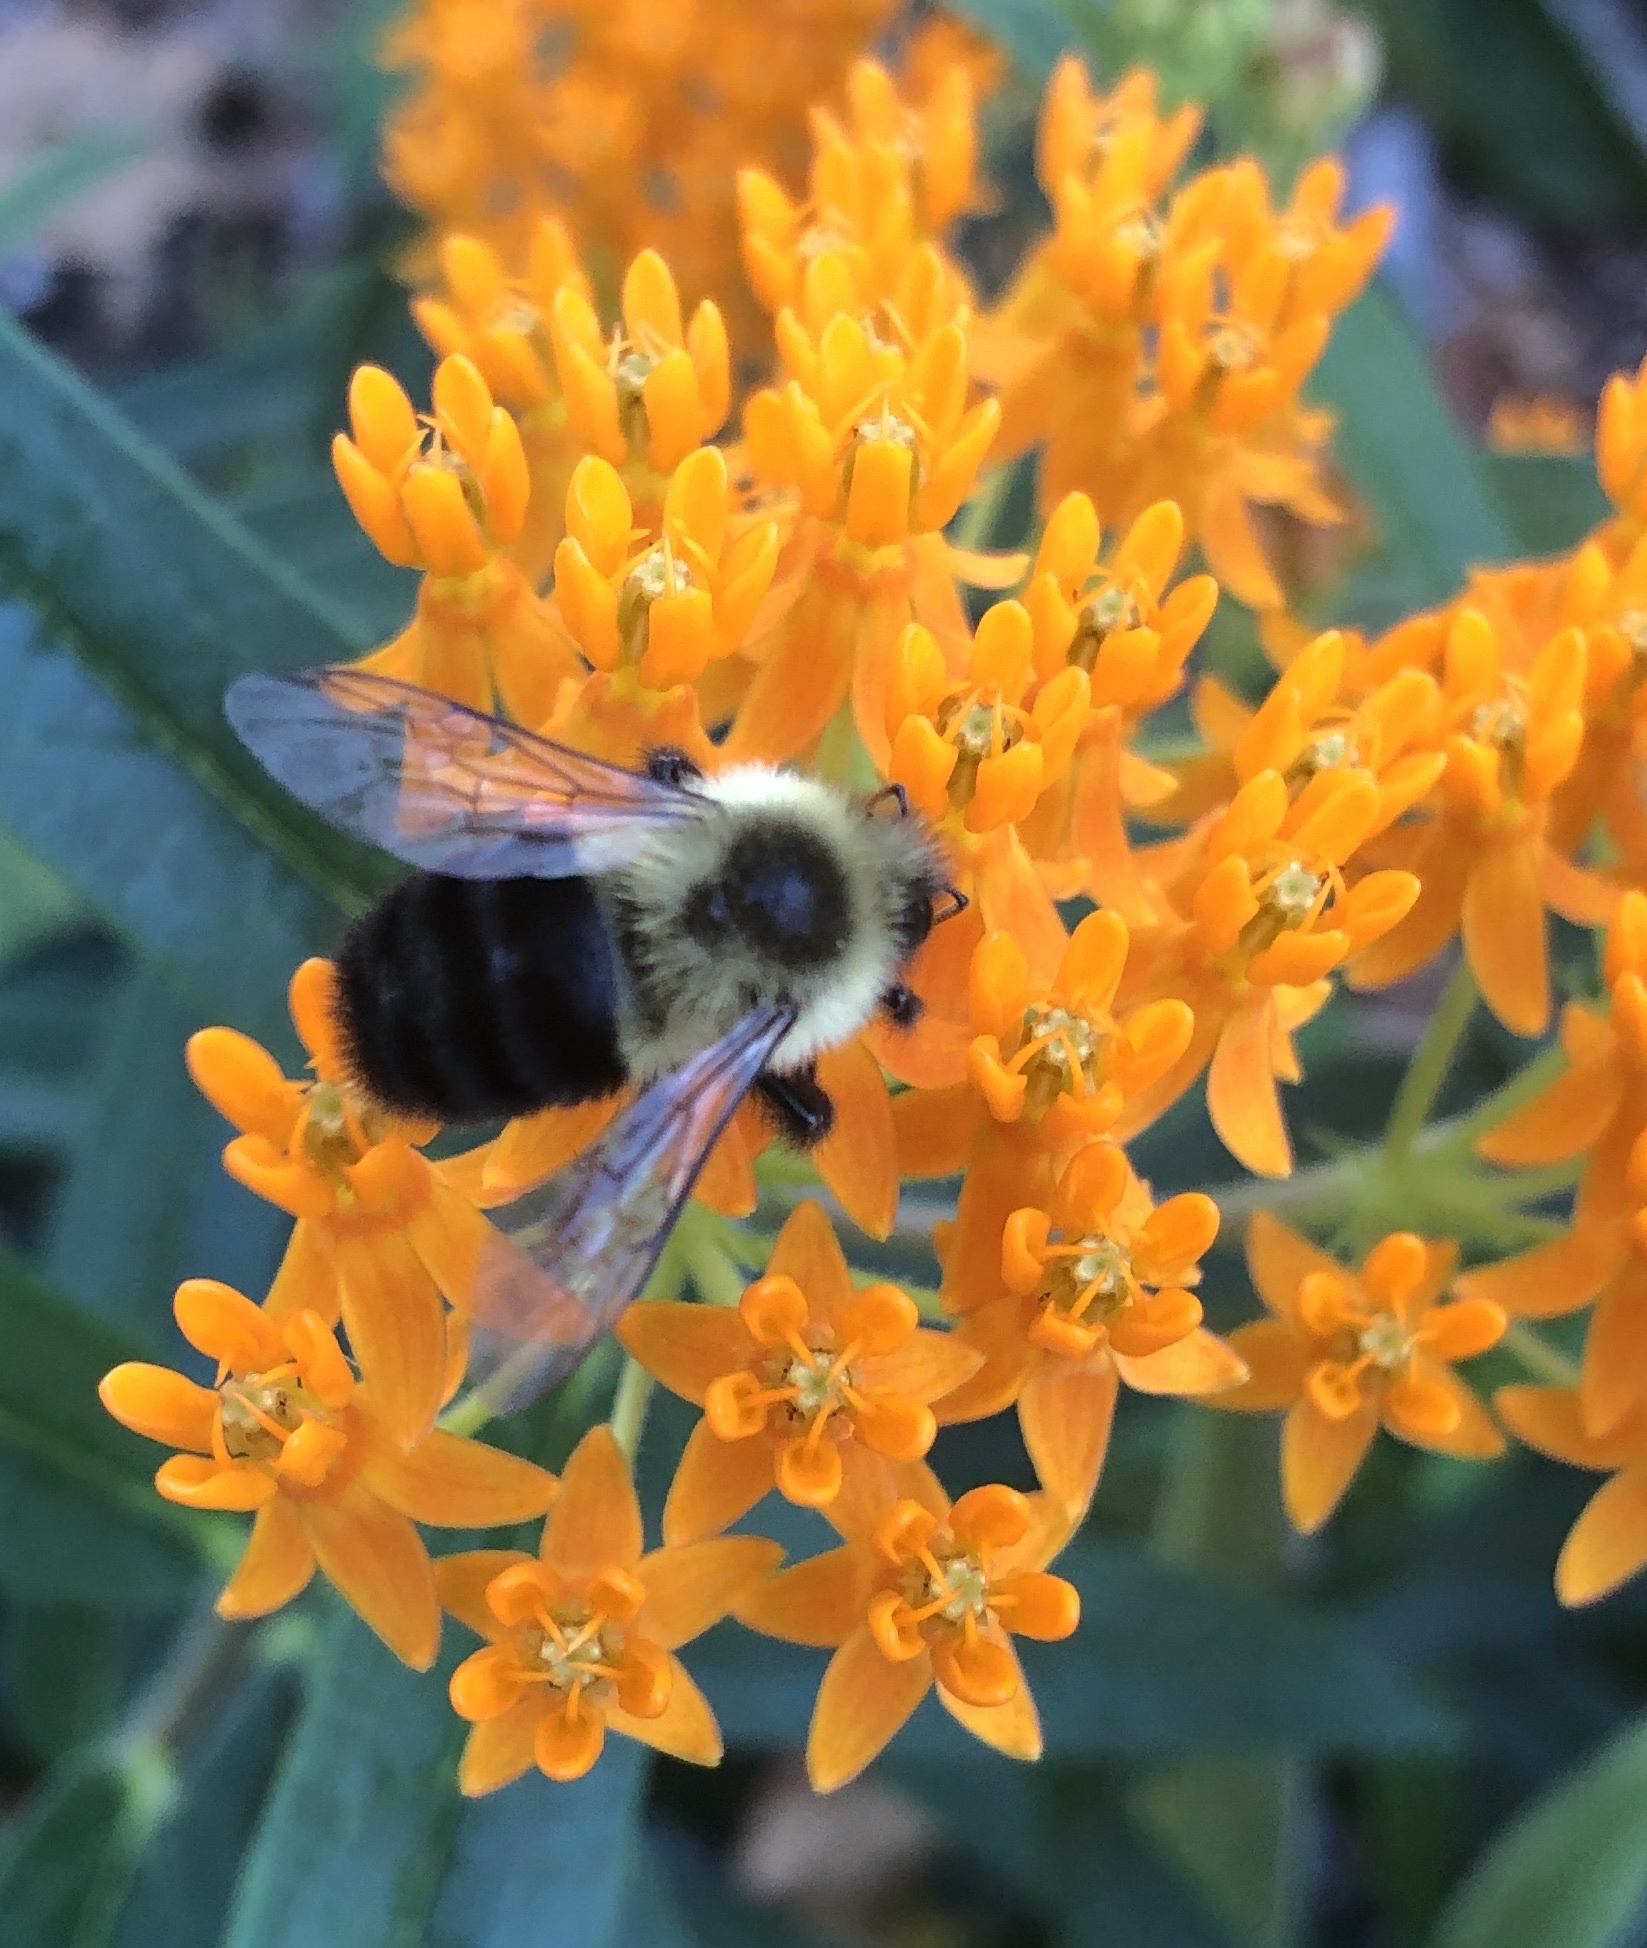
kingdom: Animalia
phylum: Arthropoda
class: Insecta
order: Hymenoptera
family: Apidae
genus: Bombus
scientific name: Bombus impatiens
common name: Common eastern bumble bee
